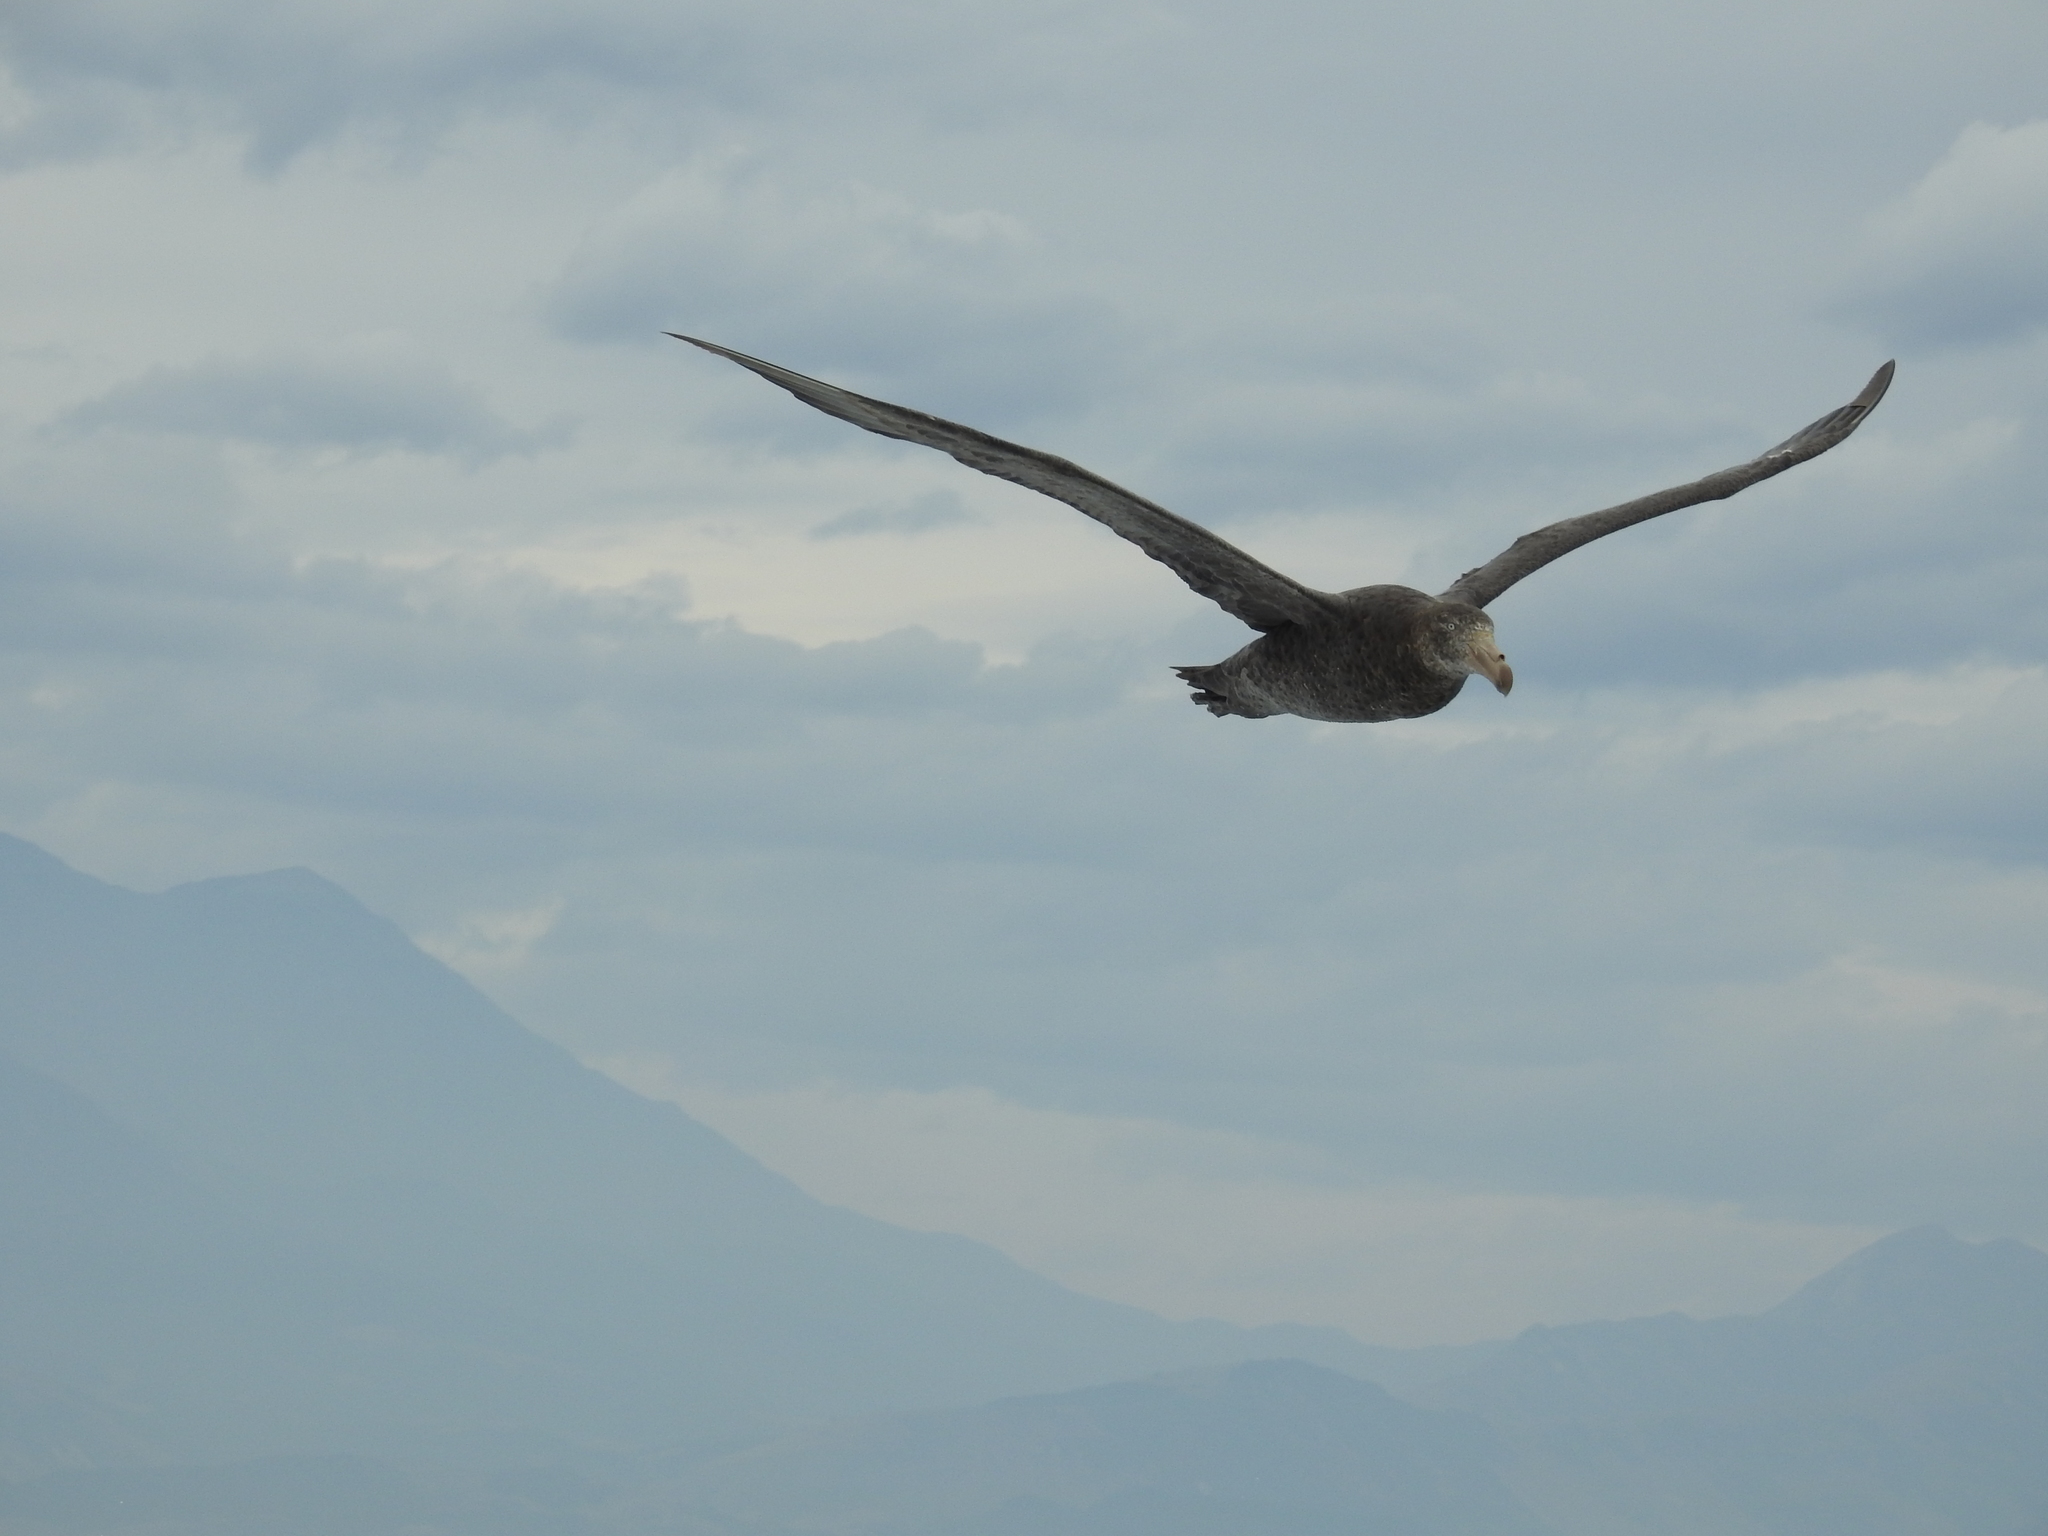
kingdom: Animalia
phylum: Chordata
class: Aves
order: Procellariiformes
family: Procellariidae
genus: Macronectes
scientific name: Macronectes halli
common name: Northern giant petrel
